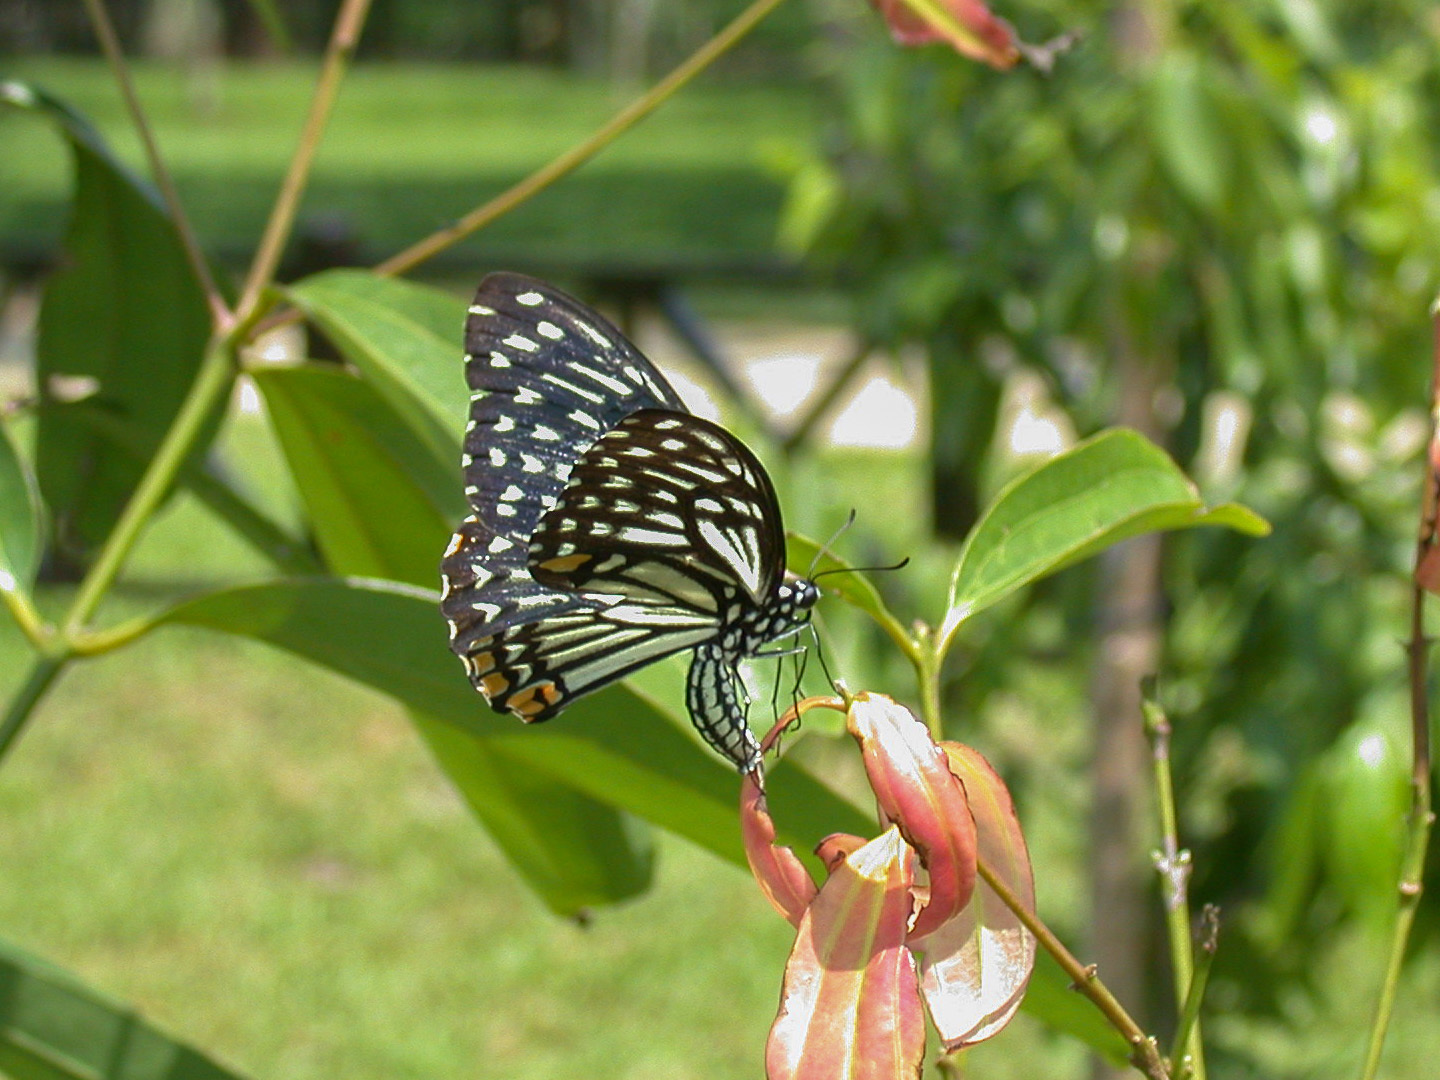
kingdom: Animalia
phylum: Arthropoda
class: Insecta
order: Lepidoptera
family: Papilionidae
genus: Chilasa
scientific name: Chilasa clytia
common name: Common mime
